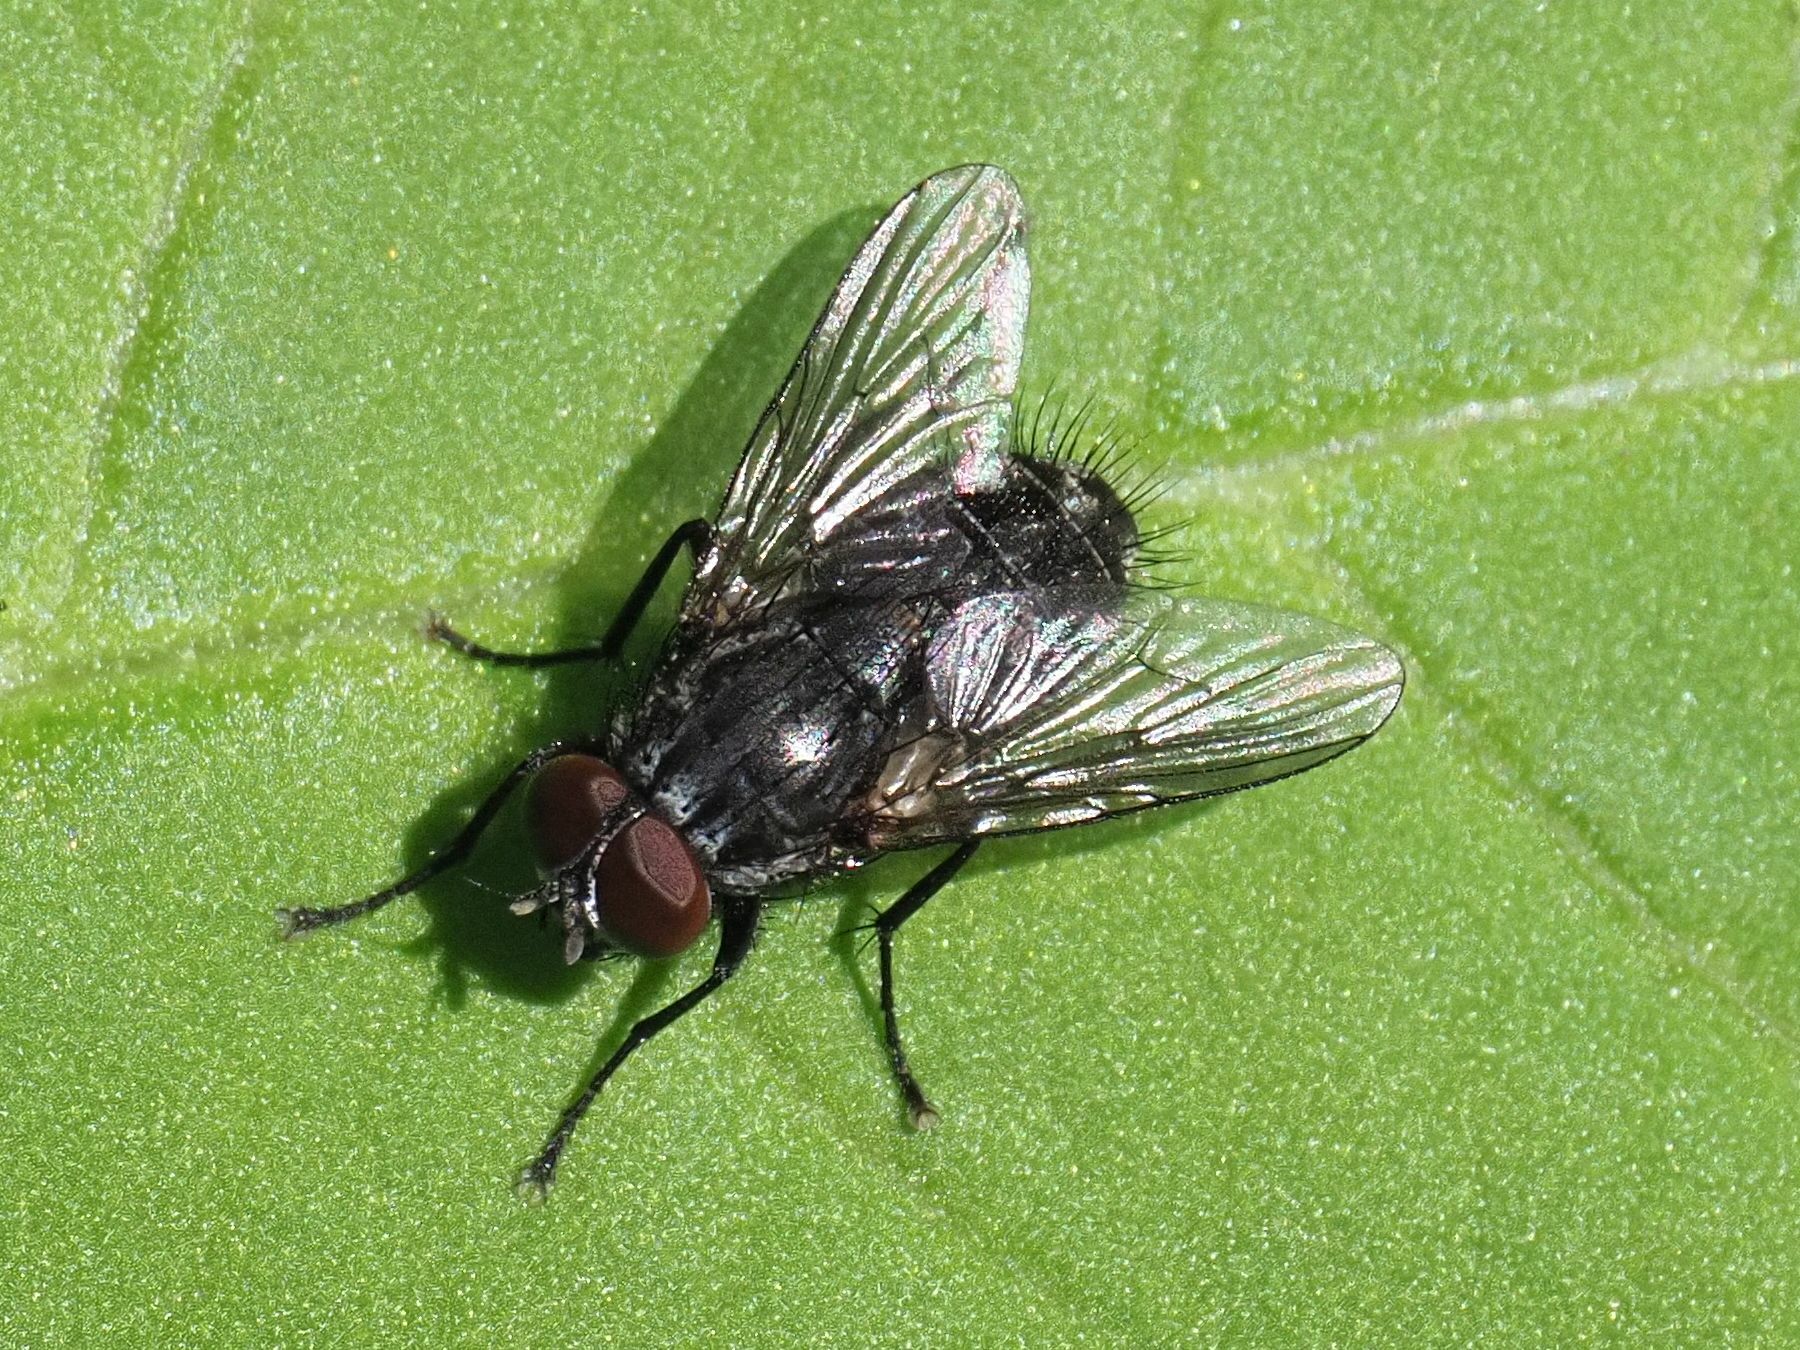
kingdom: Animalia
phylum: Arthropoda
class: Insecta
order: Diptera
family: Muscidae
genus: Muscina
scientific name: Muscina levida
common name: House fly
